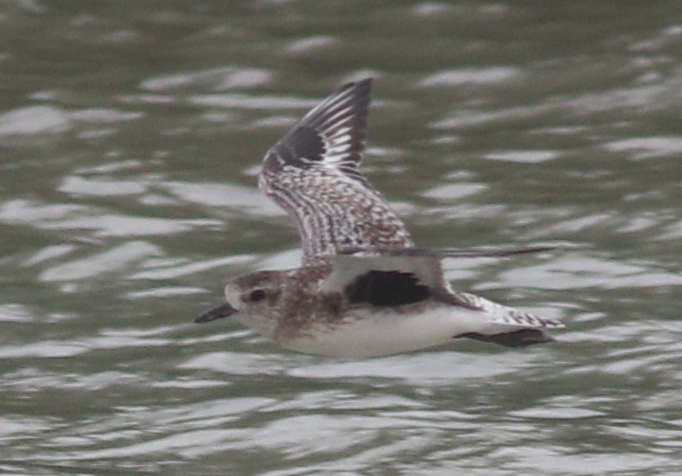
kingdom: Animalia
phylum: Chordata
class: Aves
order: Charadriiformes
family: Charadriidae
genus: Pluvialis
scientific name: Pluvialis squatarola
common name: Grey plover
